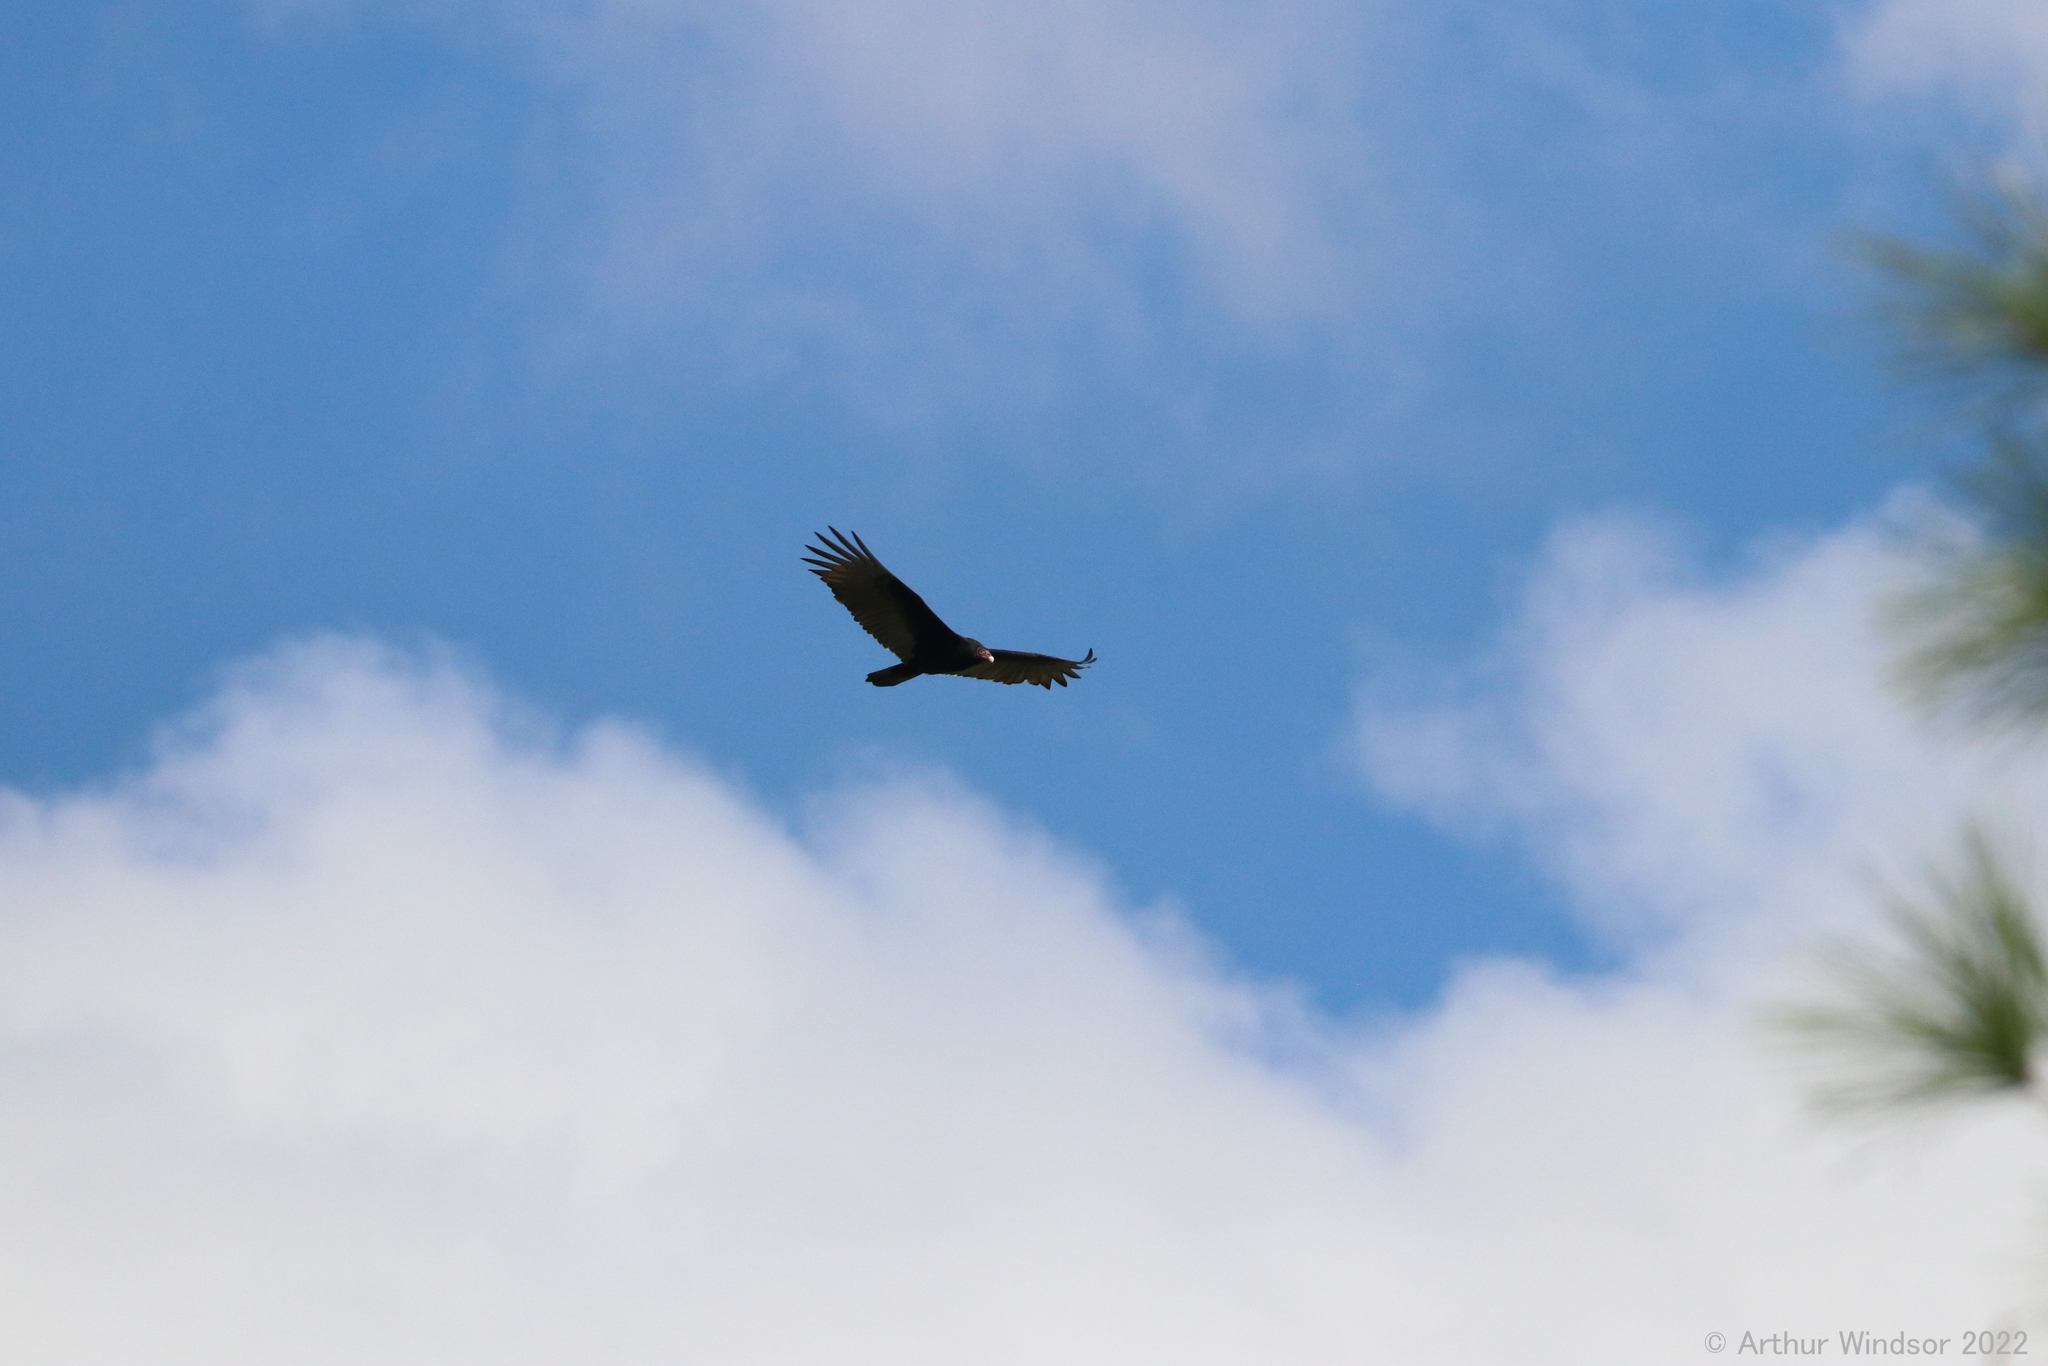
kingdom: Animalia
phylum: Chordata
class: Aves
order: Accipitriformes
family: Cathartidae
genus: Cathartes
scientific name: Cathartes aura
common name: Turkey vulture
